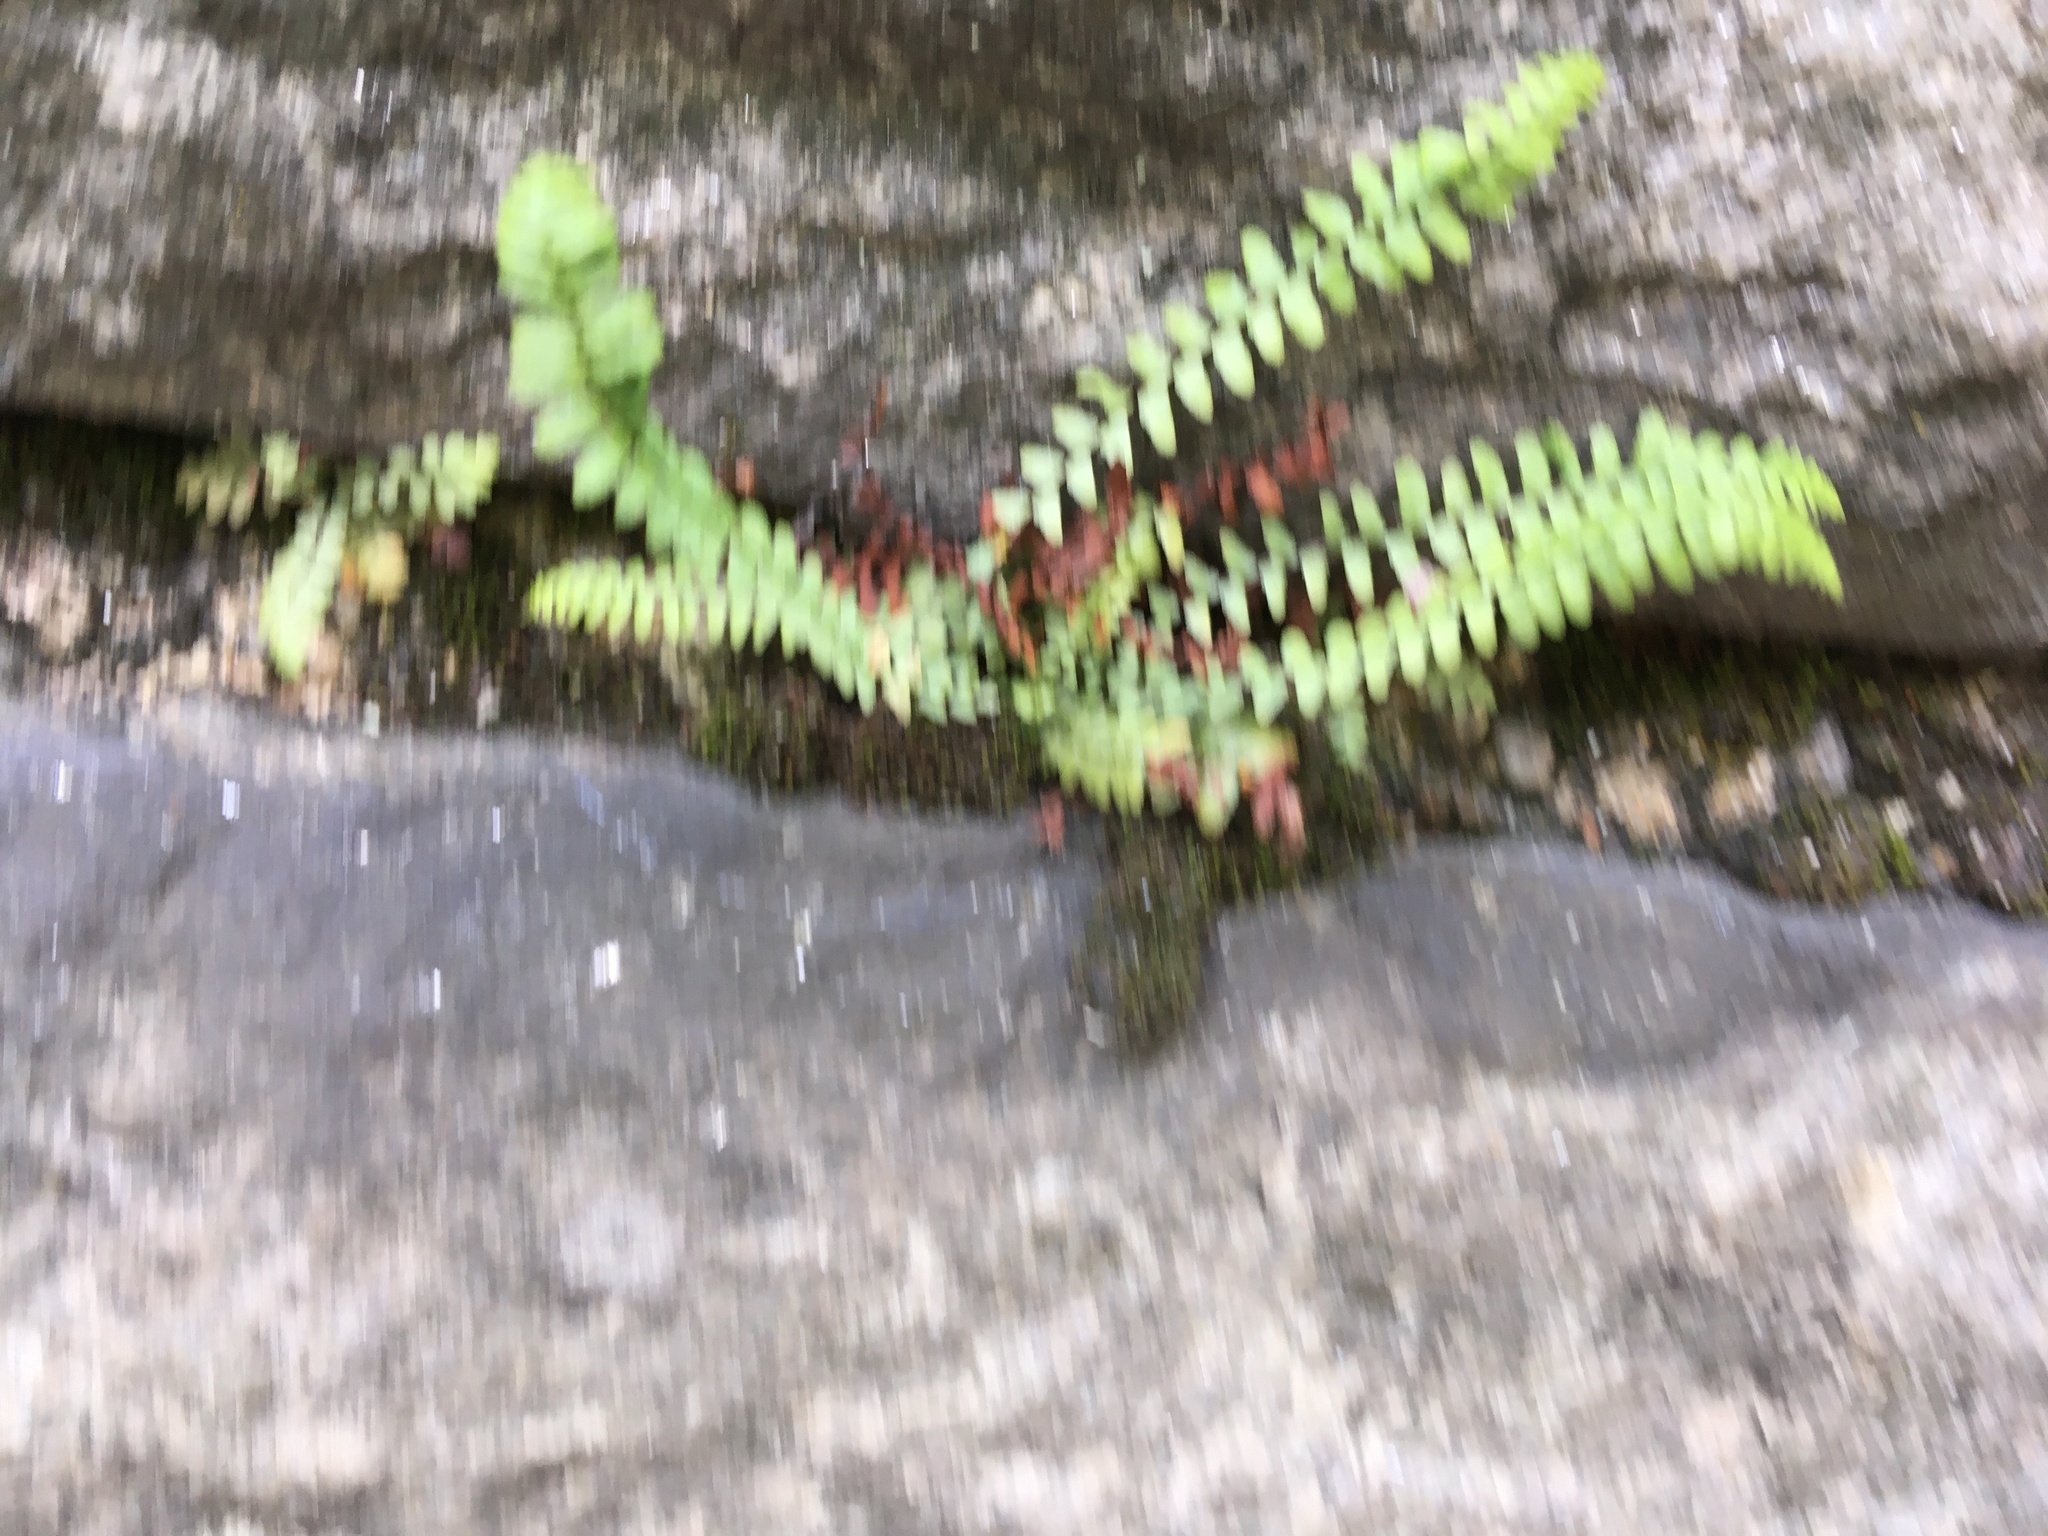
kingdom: Plantae
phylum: Tracheophyta
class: Polypodiopsida
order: Polypodiales
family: Aspleniaceae
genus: Asplenium
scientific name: Asplenium platyneuron
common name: Ebony spleenwort
